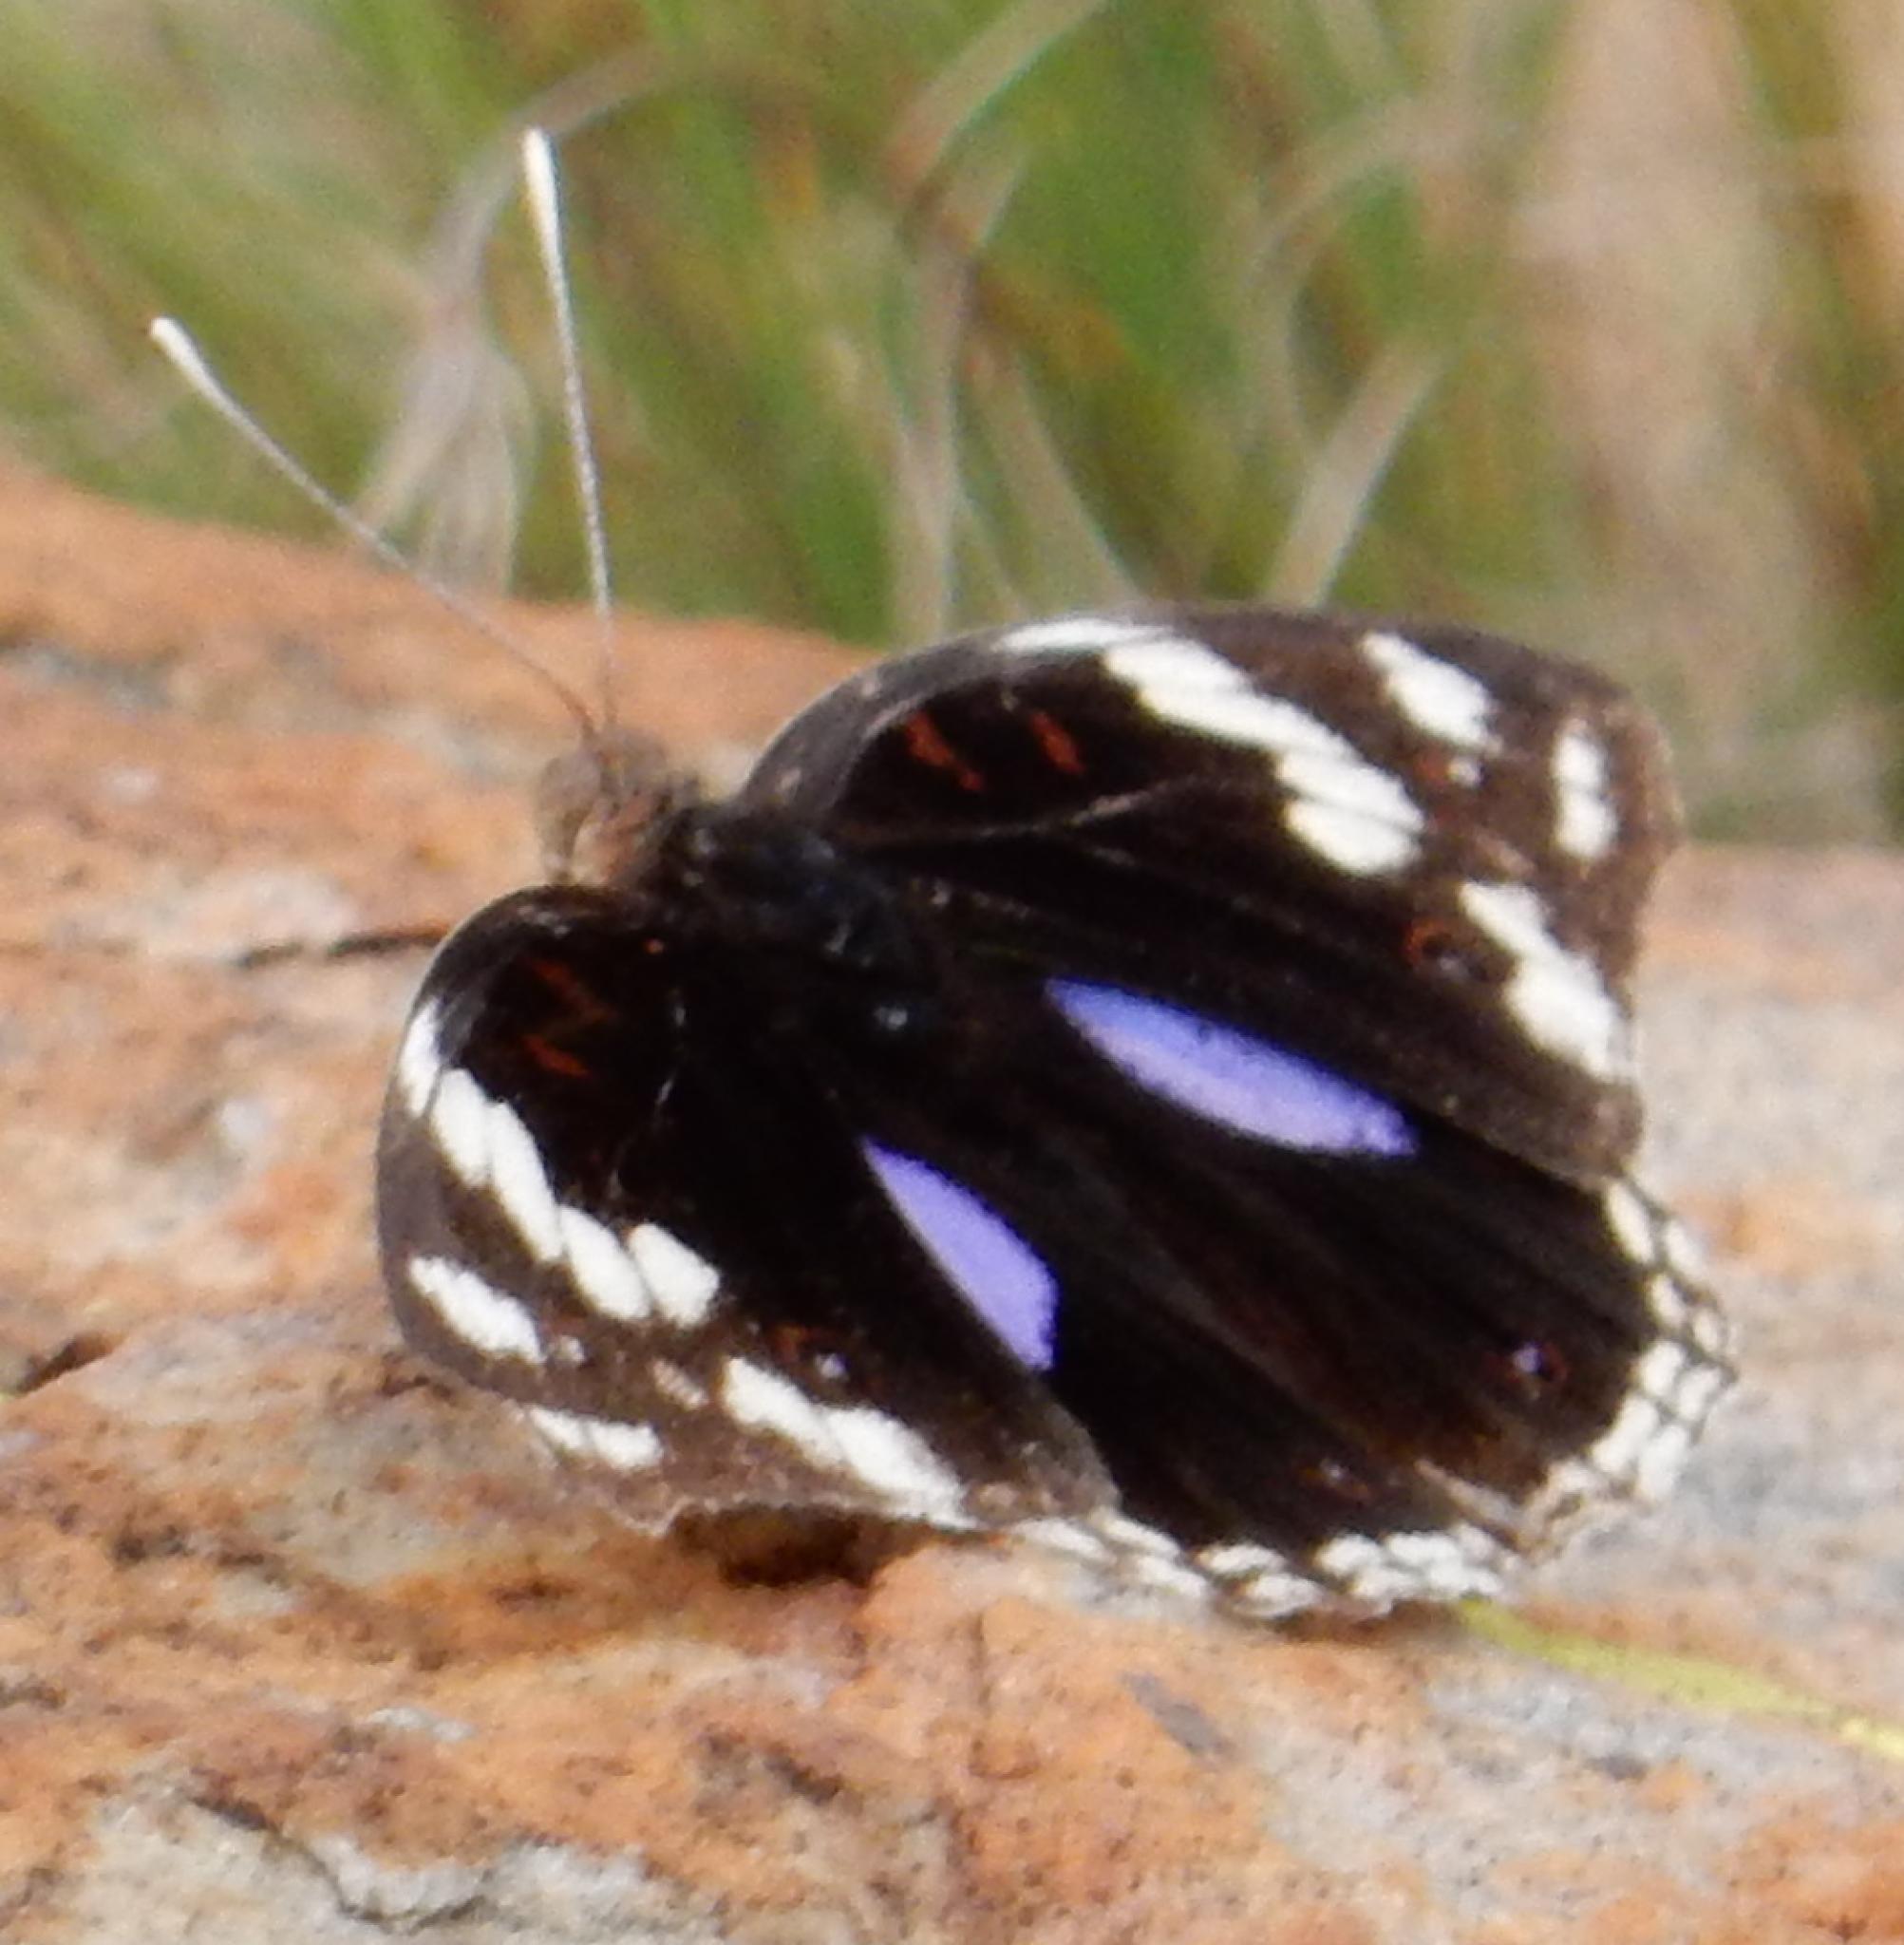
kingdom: Animalia
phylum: Arthropoda
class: Insecta
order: Lepidoptera
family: Nymphalidae
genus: Junonia
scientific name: Junonia oenone
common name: Dark blue pansy
